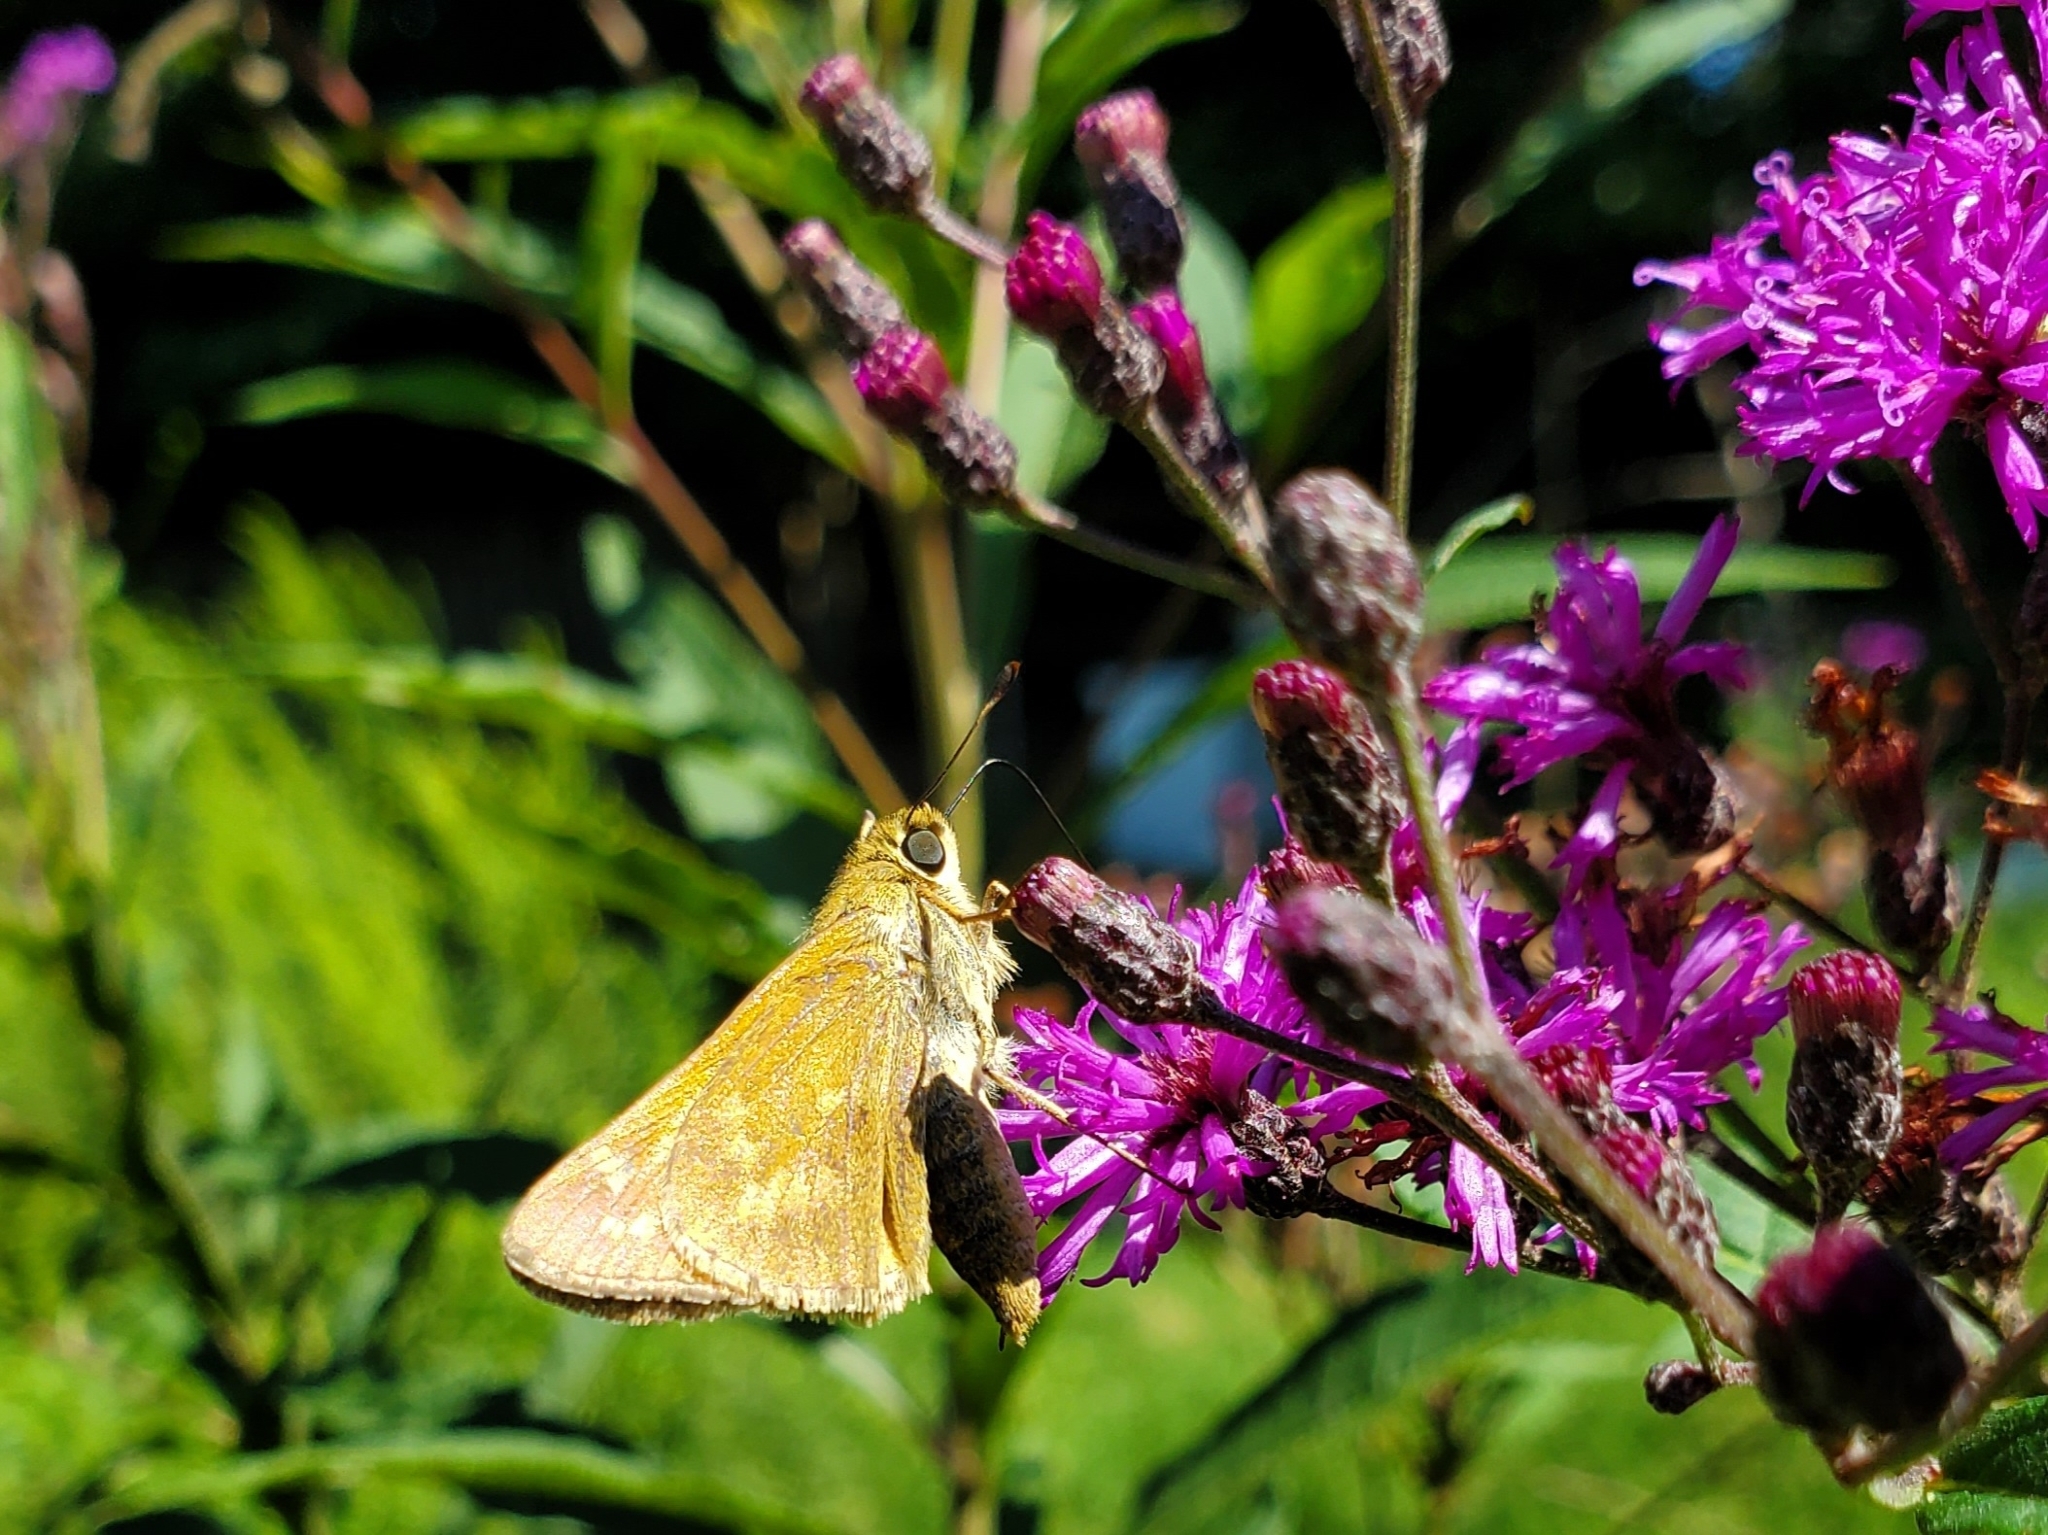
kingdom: Animalia
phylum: Arthropoda
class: Insecta
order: Lepidoptera
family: Hesperiidae
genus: Atalopedes
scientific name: Atalopedes
